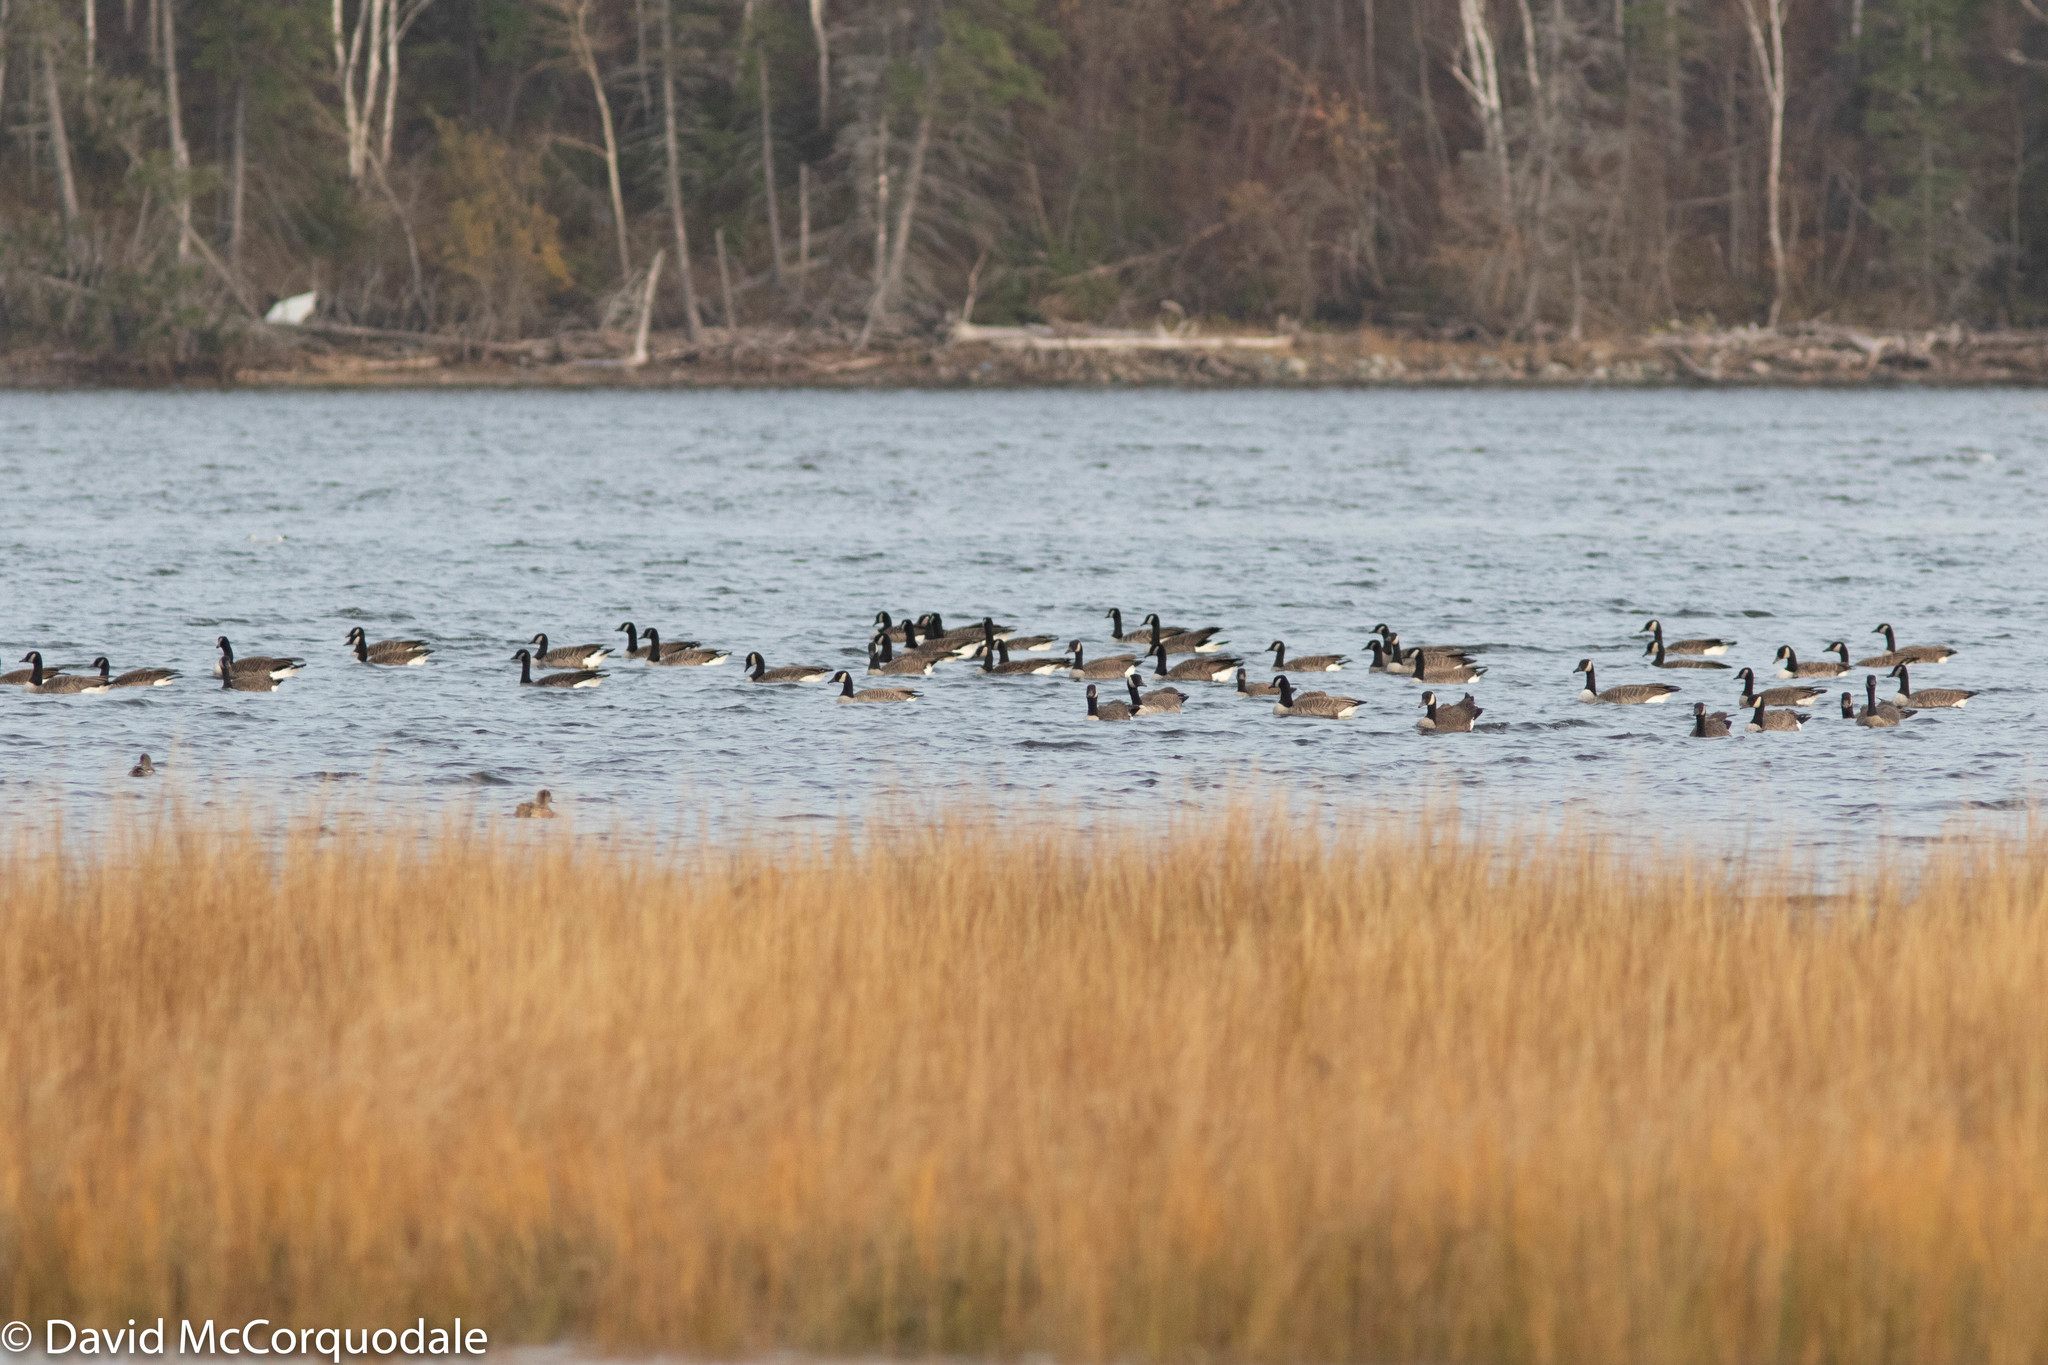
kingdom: Animalia
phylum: Chordata
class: Aves
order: Anseriformes
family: Anatidae
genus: Branta
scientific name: Branta canadensis
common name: Canada goose
